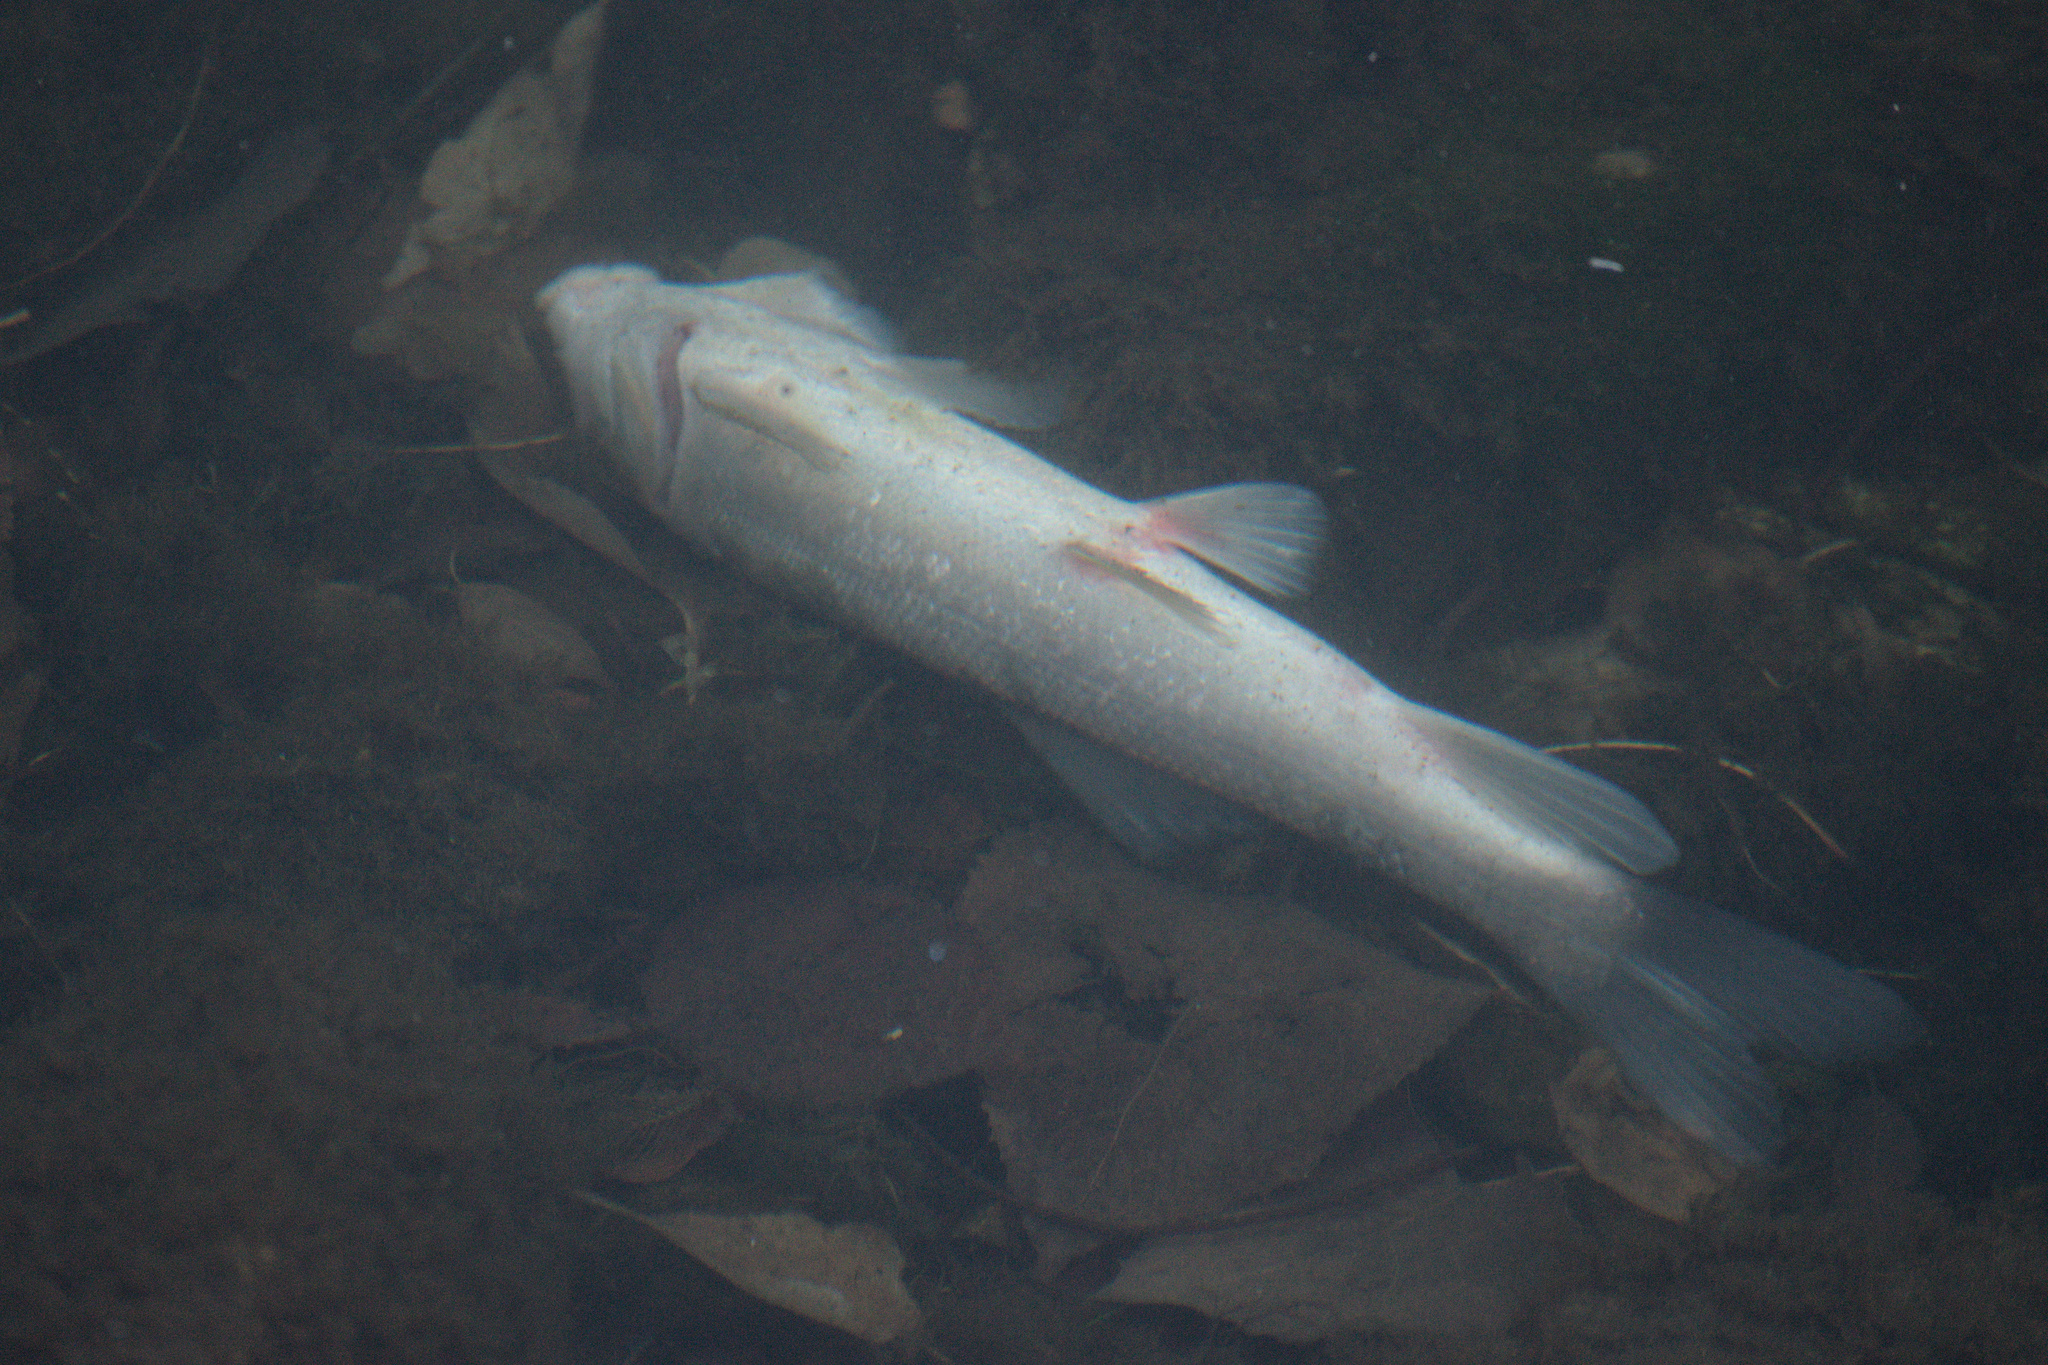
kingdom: Animalia
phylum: Chordata
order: Cypriniformes
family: Catostomidae
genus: Catostomus
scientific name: Catostomus commersonii
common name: White sucker
